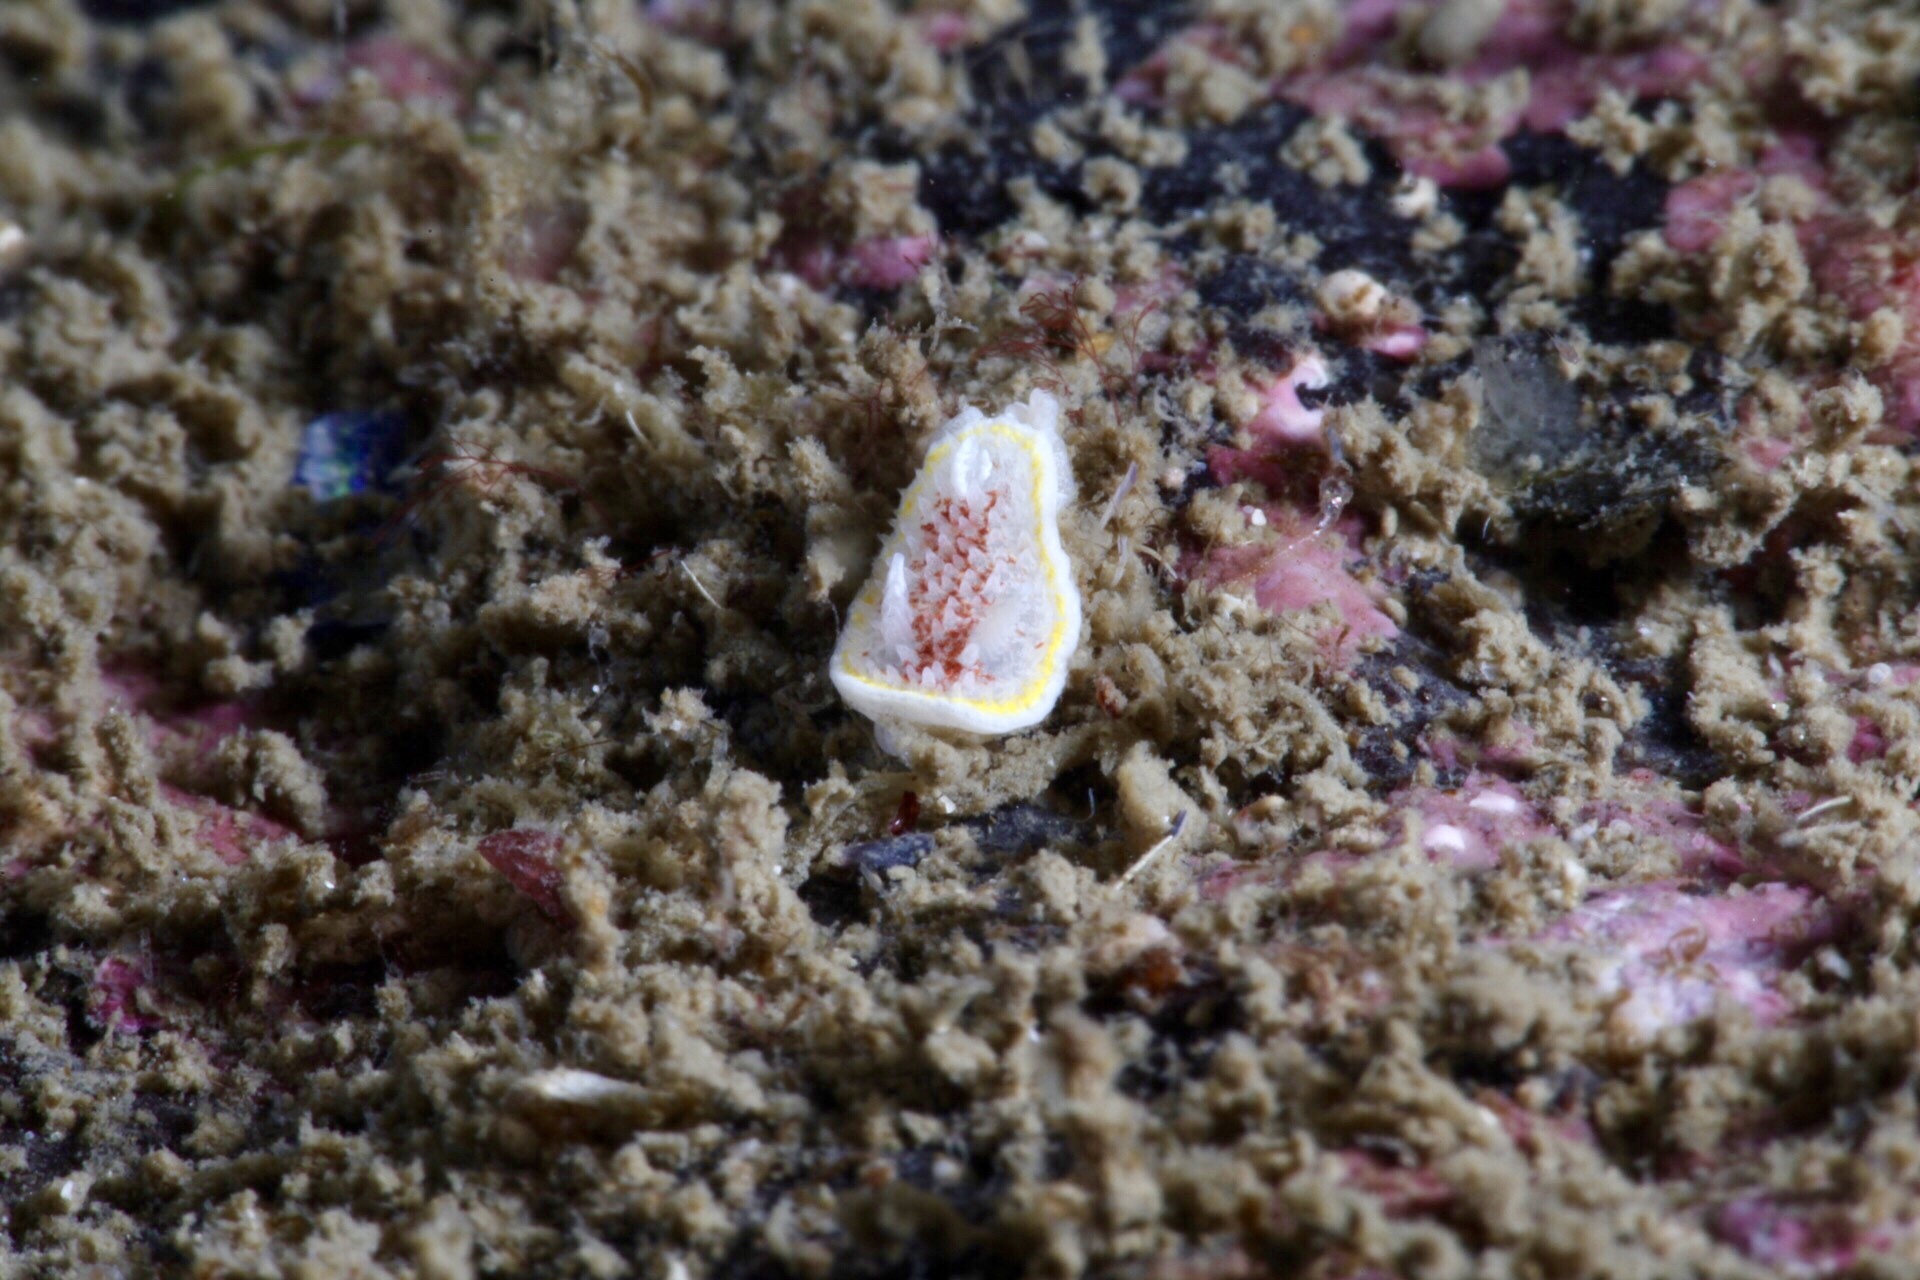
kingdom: Animalia
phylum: Mollusca
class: Gastropoda
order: Nudibranchia
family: Calycidorididae
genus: Diaphorodoris
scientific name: Diaphorodoris luteocincta
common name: Fried egg nudibranch
